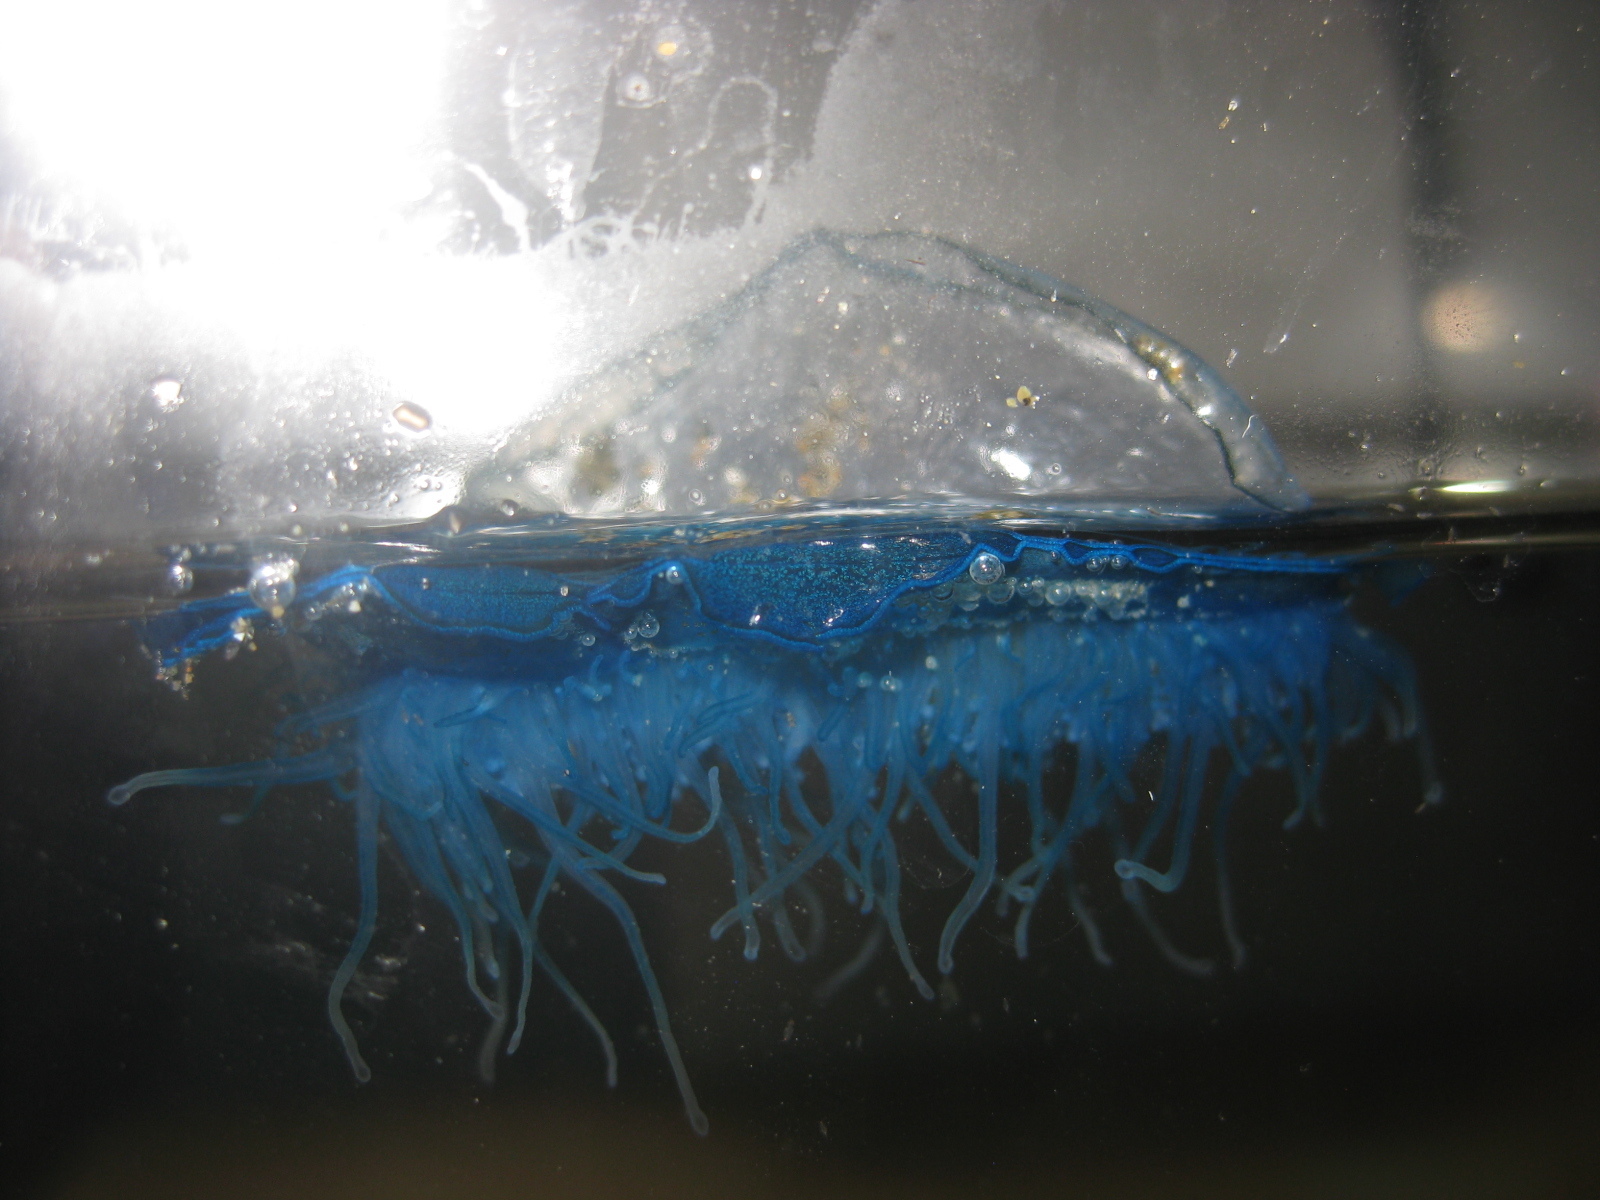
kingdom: Animalia
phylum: Cnidaria
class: Hydrozoa
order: Anthoathecata
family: Porpitidae
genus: Velella
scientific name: Velella velella
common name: By-the-wind-sailor
